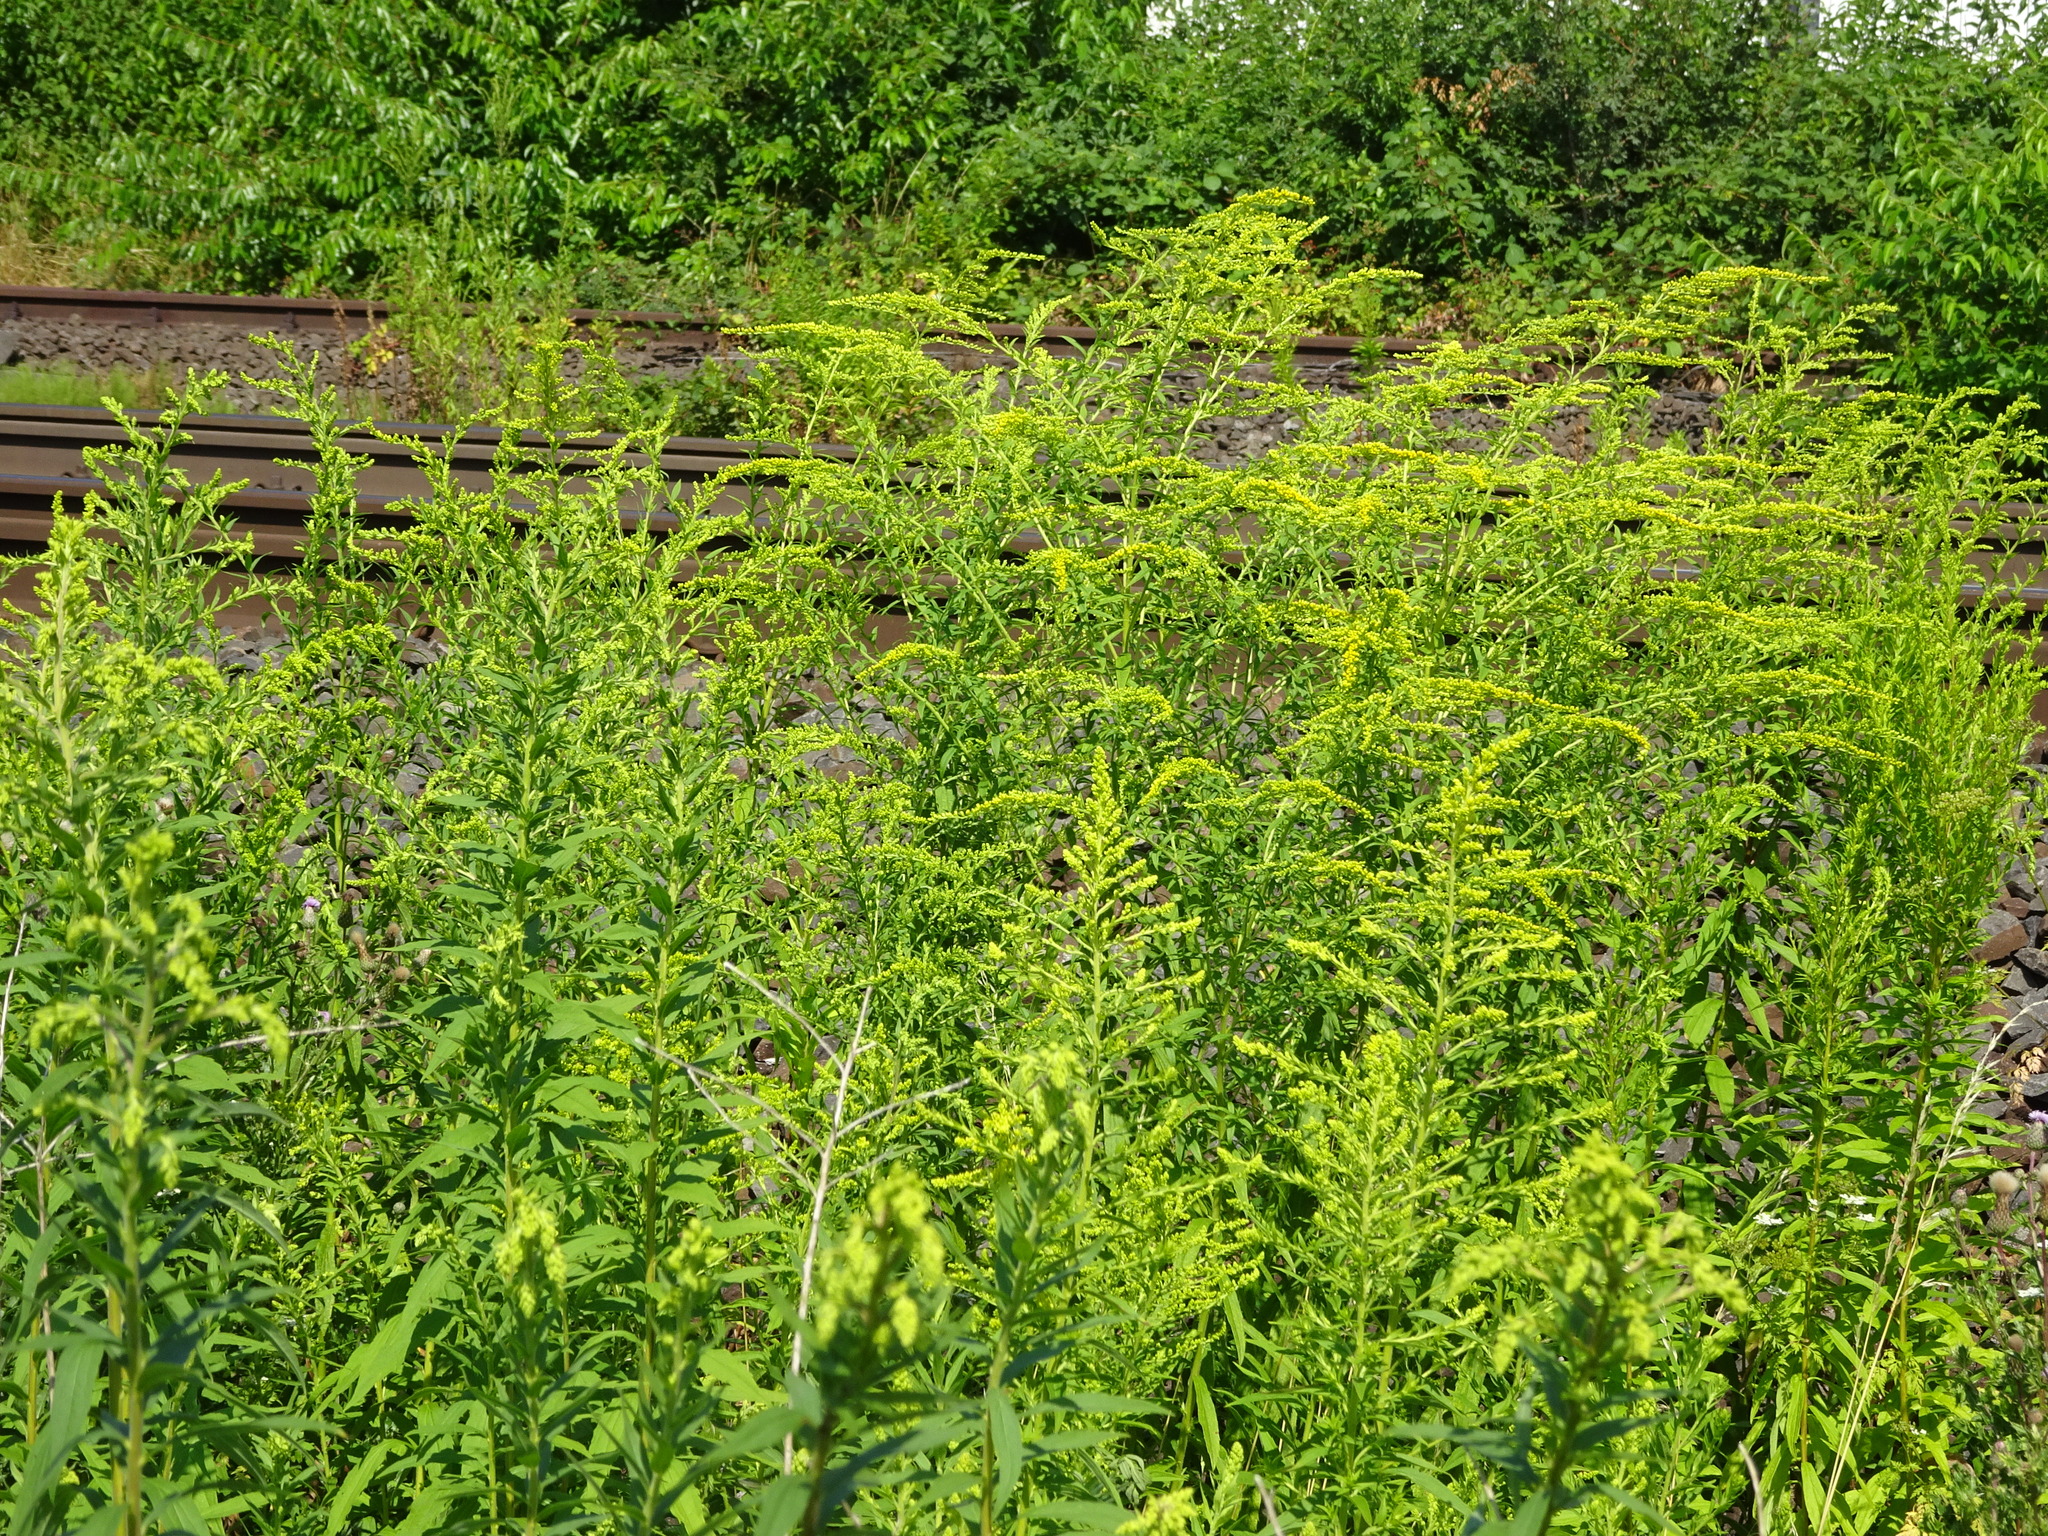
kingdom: Plantae
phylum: Tracheophyta
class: Magnoliopsida
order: Asterales
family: Asteraceae
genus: Solidago
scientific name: Solidago canadensis
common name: Canada goldenrod
